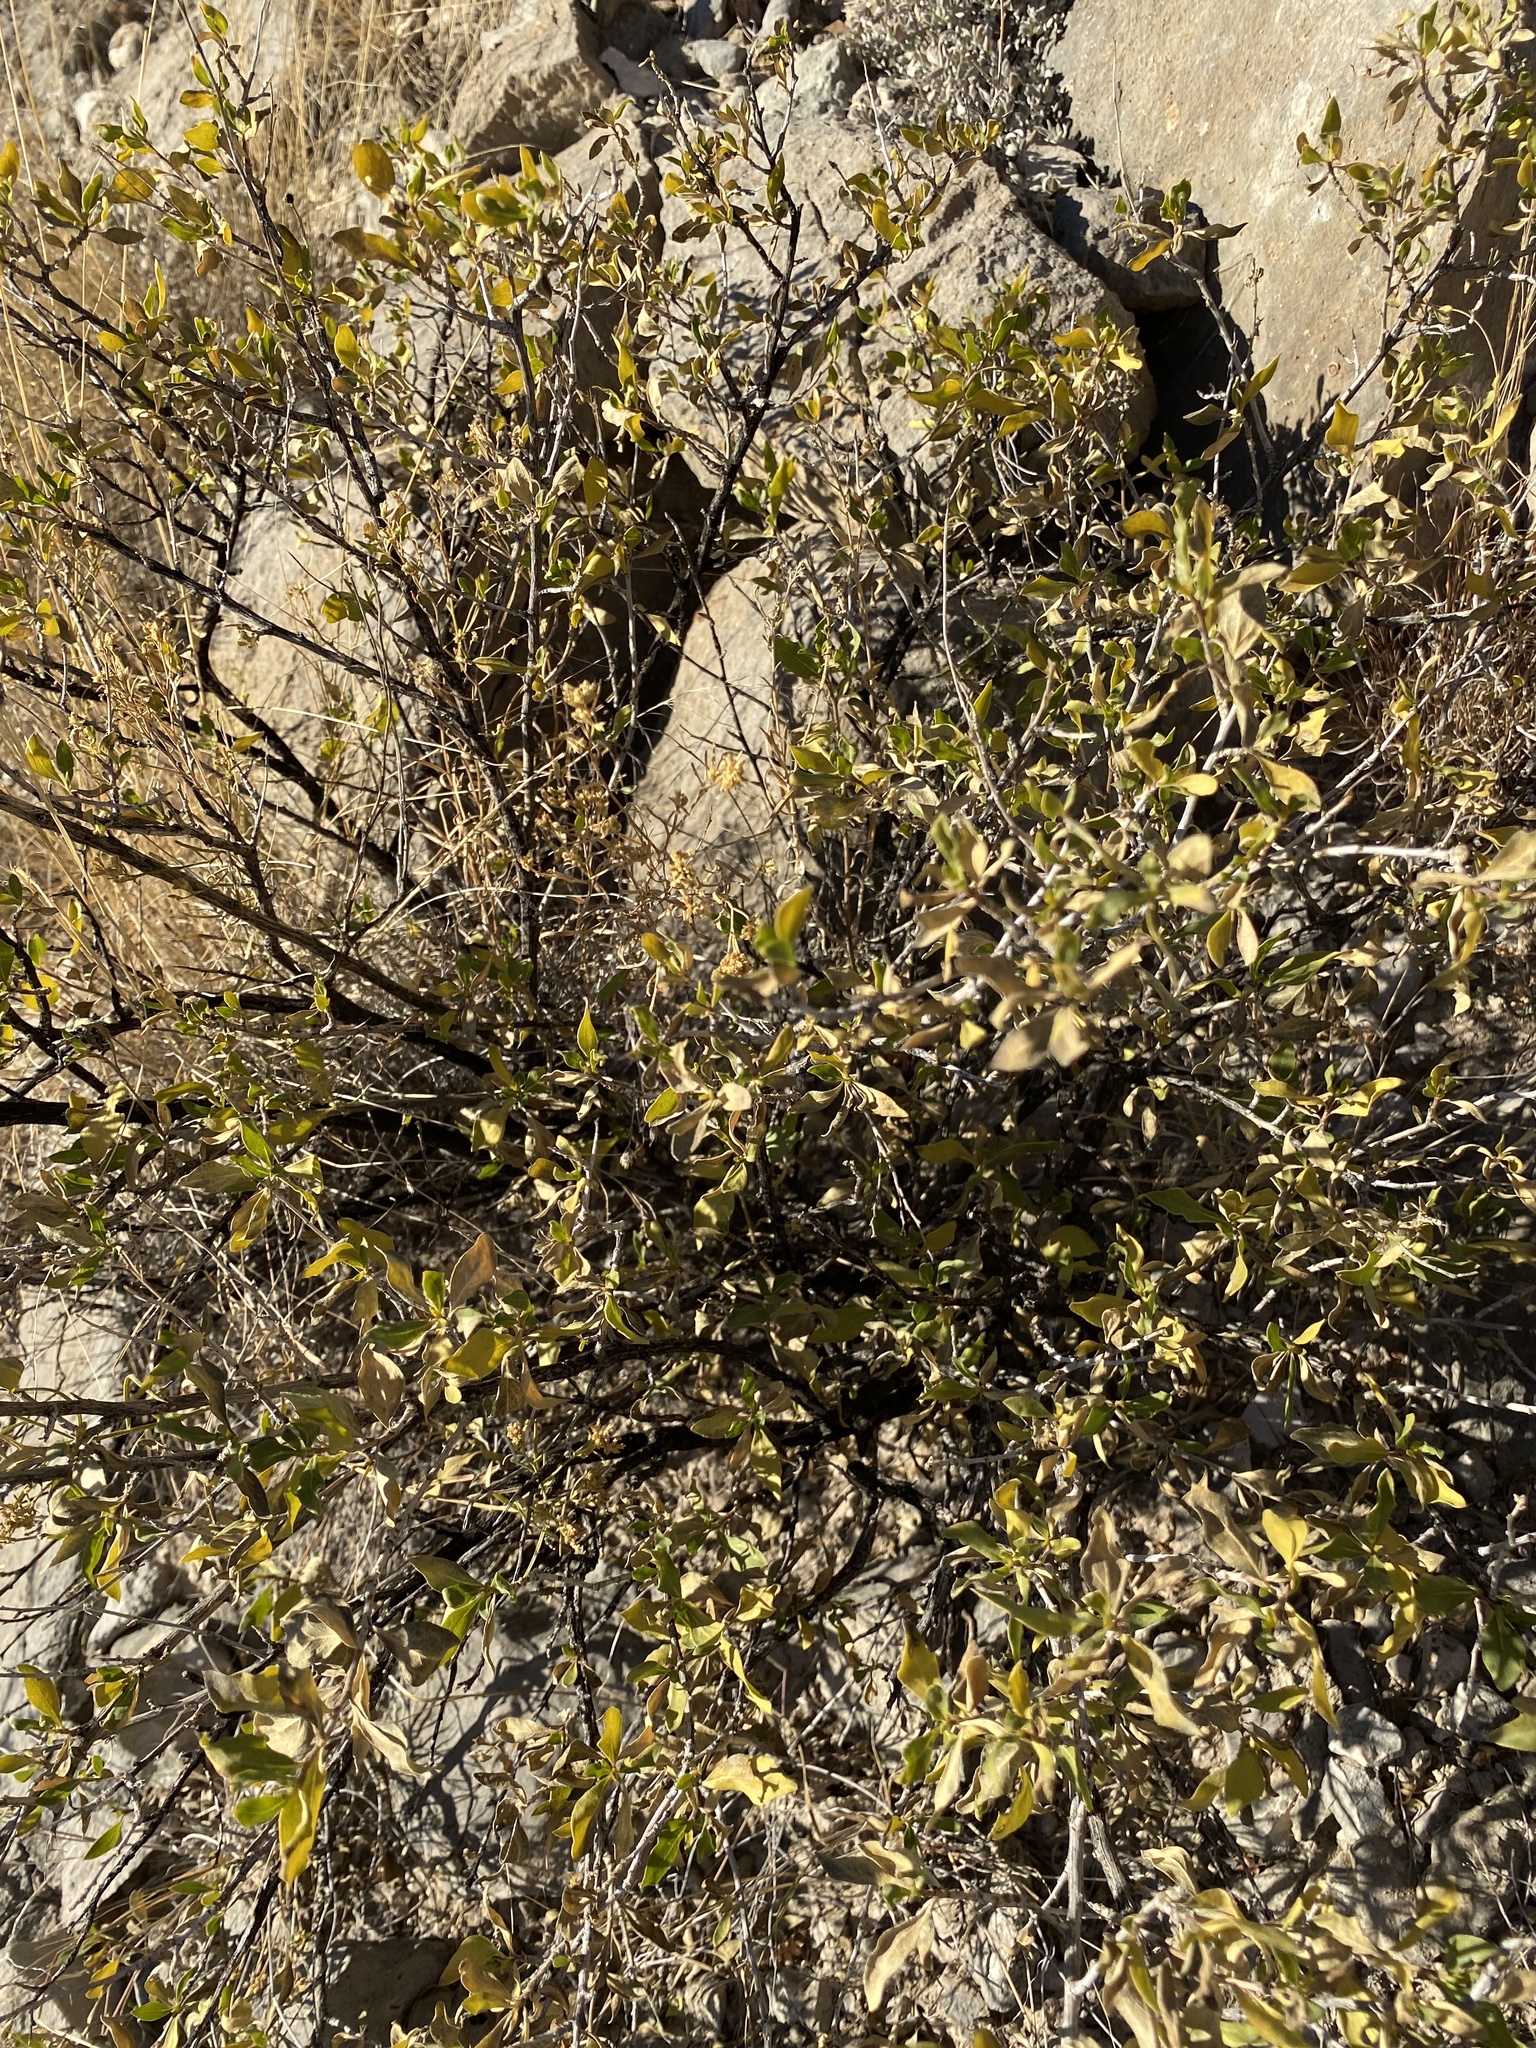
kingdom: Plantae
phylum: Tracheophyta
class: Magnoliopsida
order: Asterales
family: Asteraceae
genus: Flourensia
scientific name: Flourensia cernua
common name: Varnishbush
